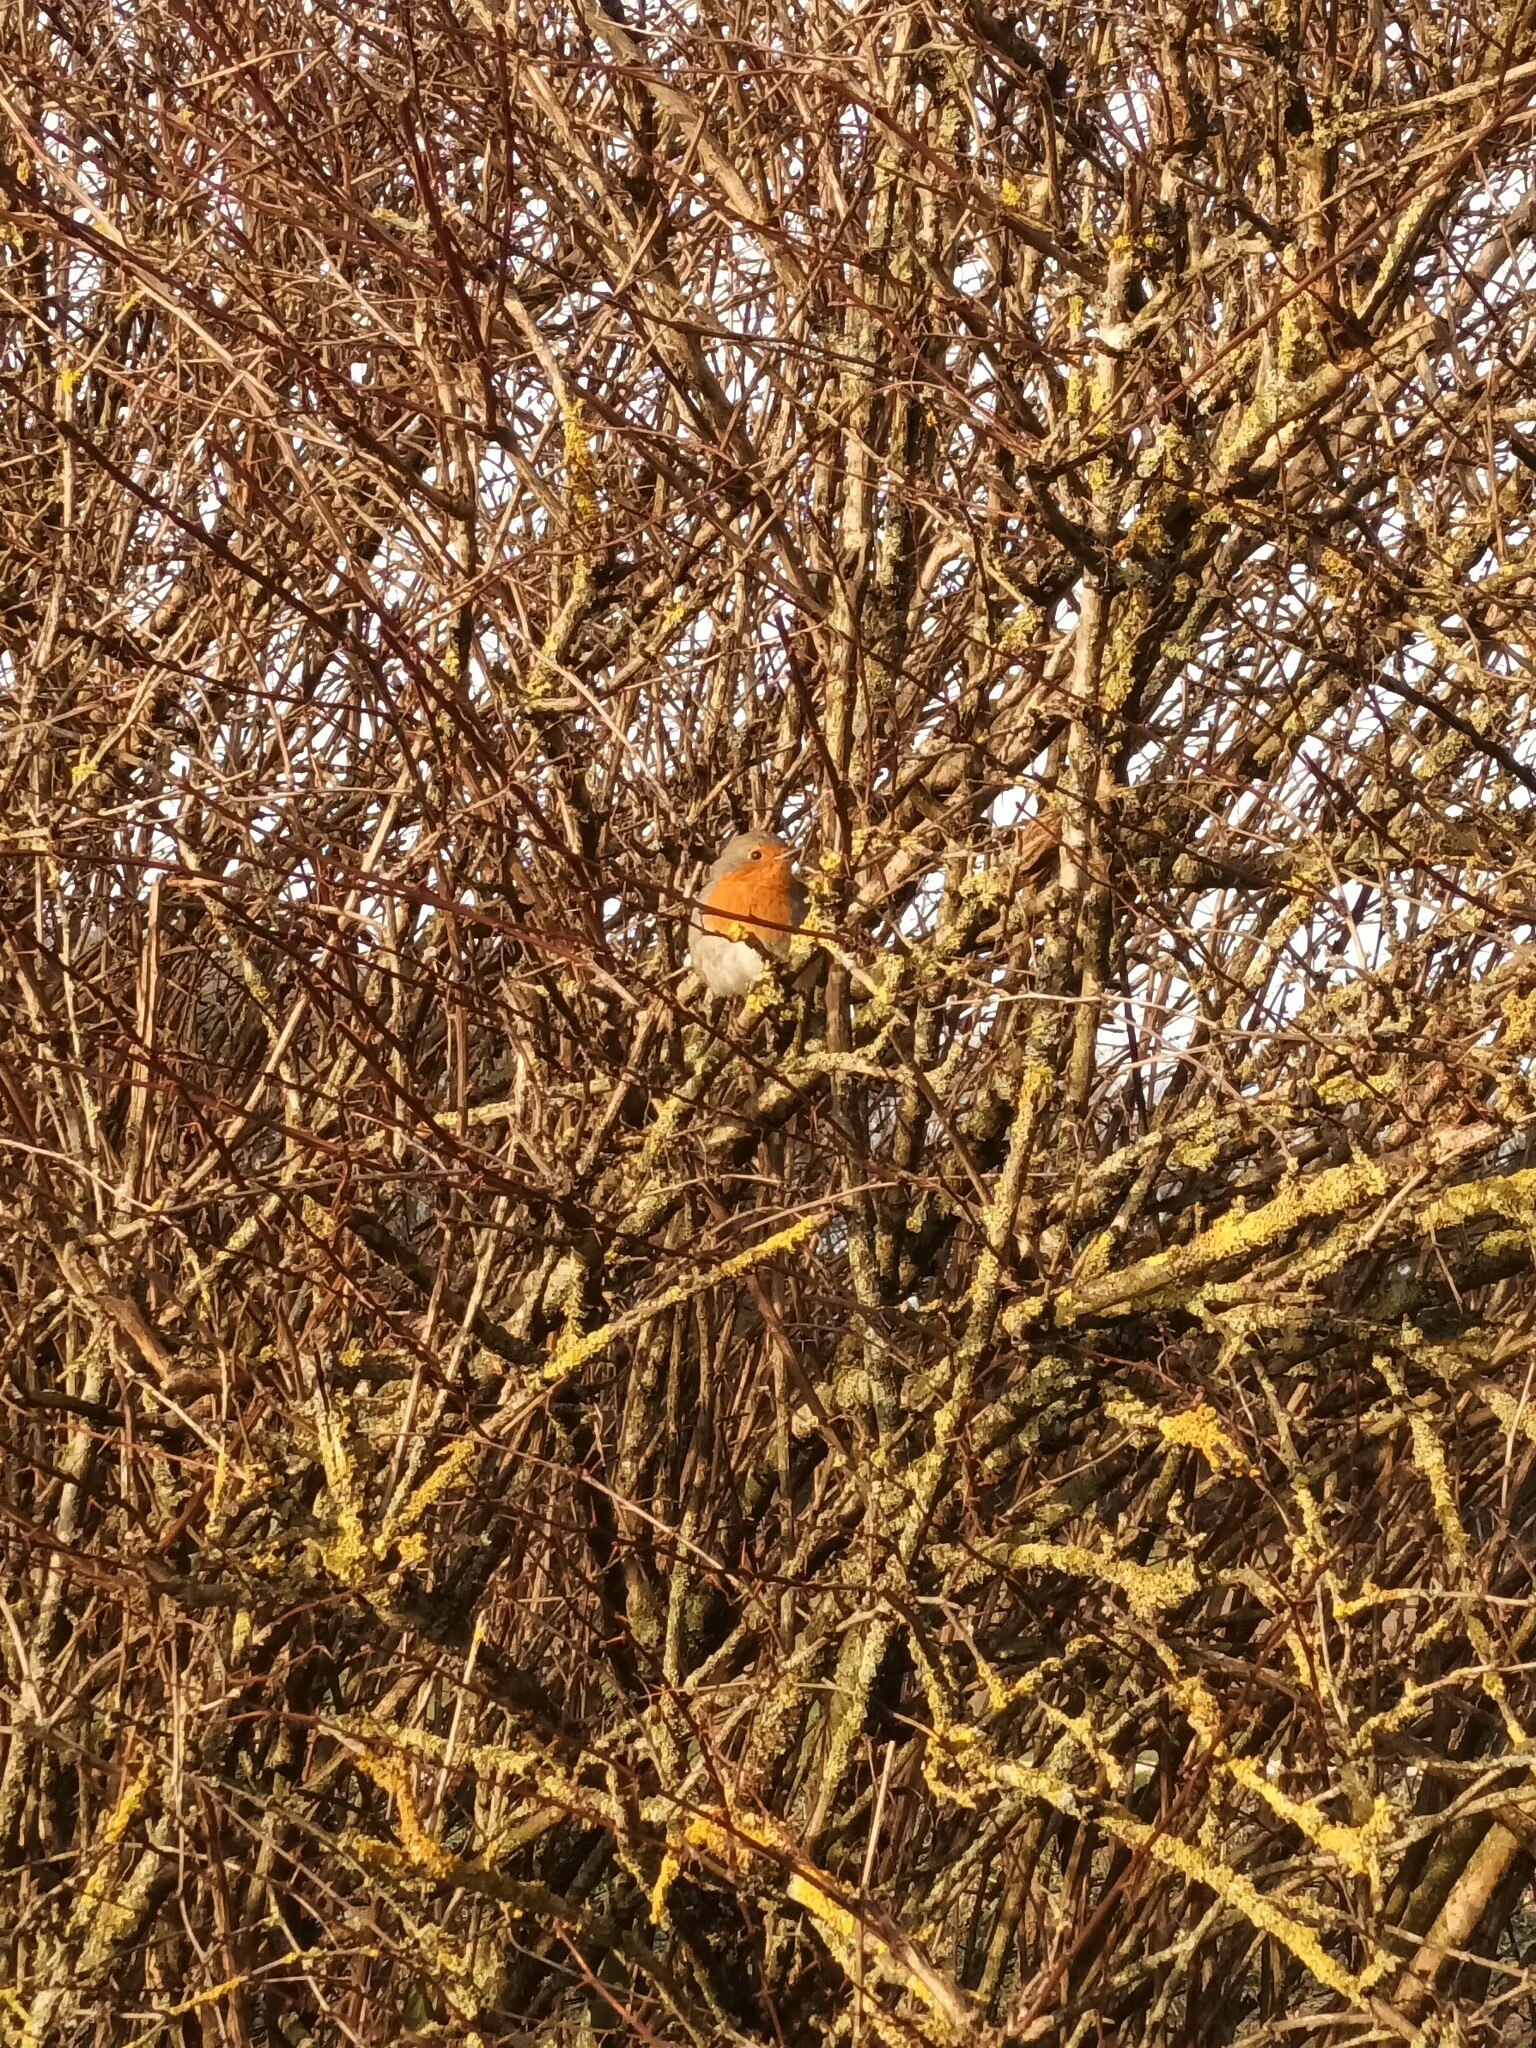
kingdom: Animalia
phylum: Chordata
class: Aves
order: Passeriformes
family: Muscicapidae
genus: Erithacus
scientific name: Erithacus rubecula
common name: European robin
